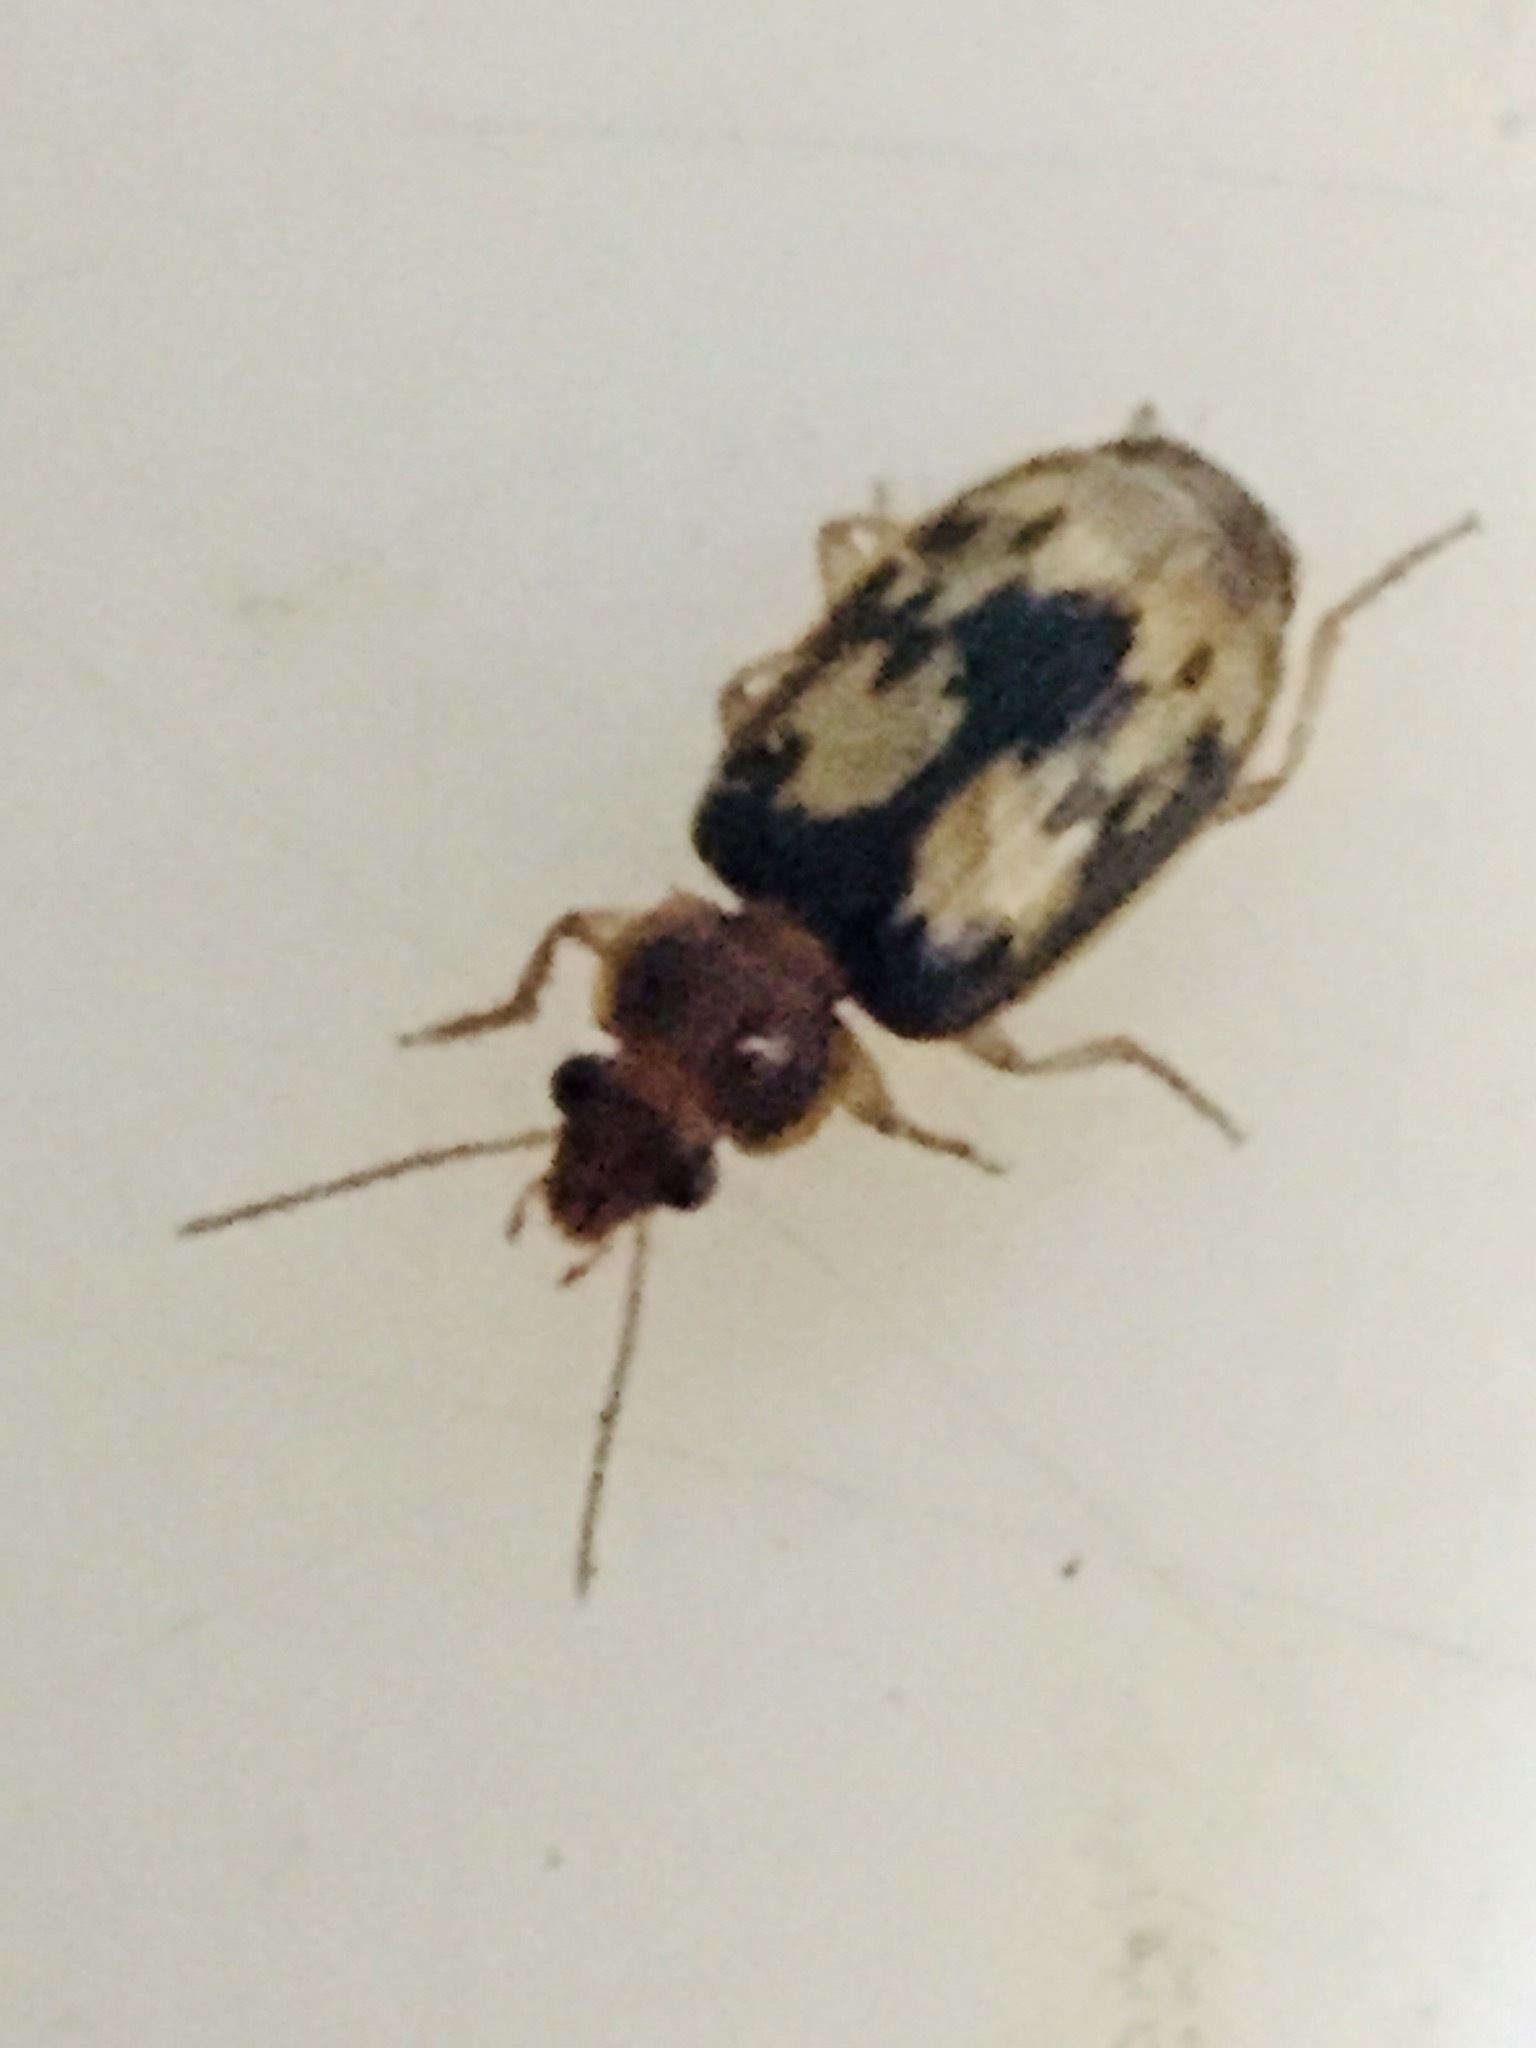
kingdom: Animalia
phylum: Arthropoda
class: Insecta
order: Coleoptera
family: Carabidae
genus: Philophlaeus
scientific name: Philophlaeus luculentus
